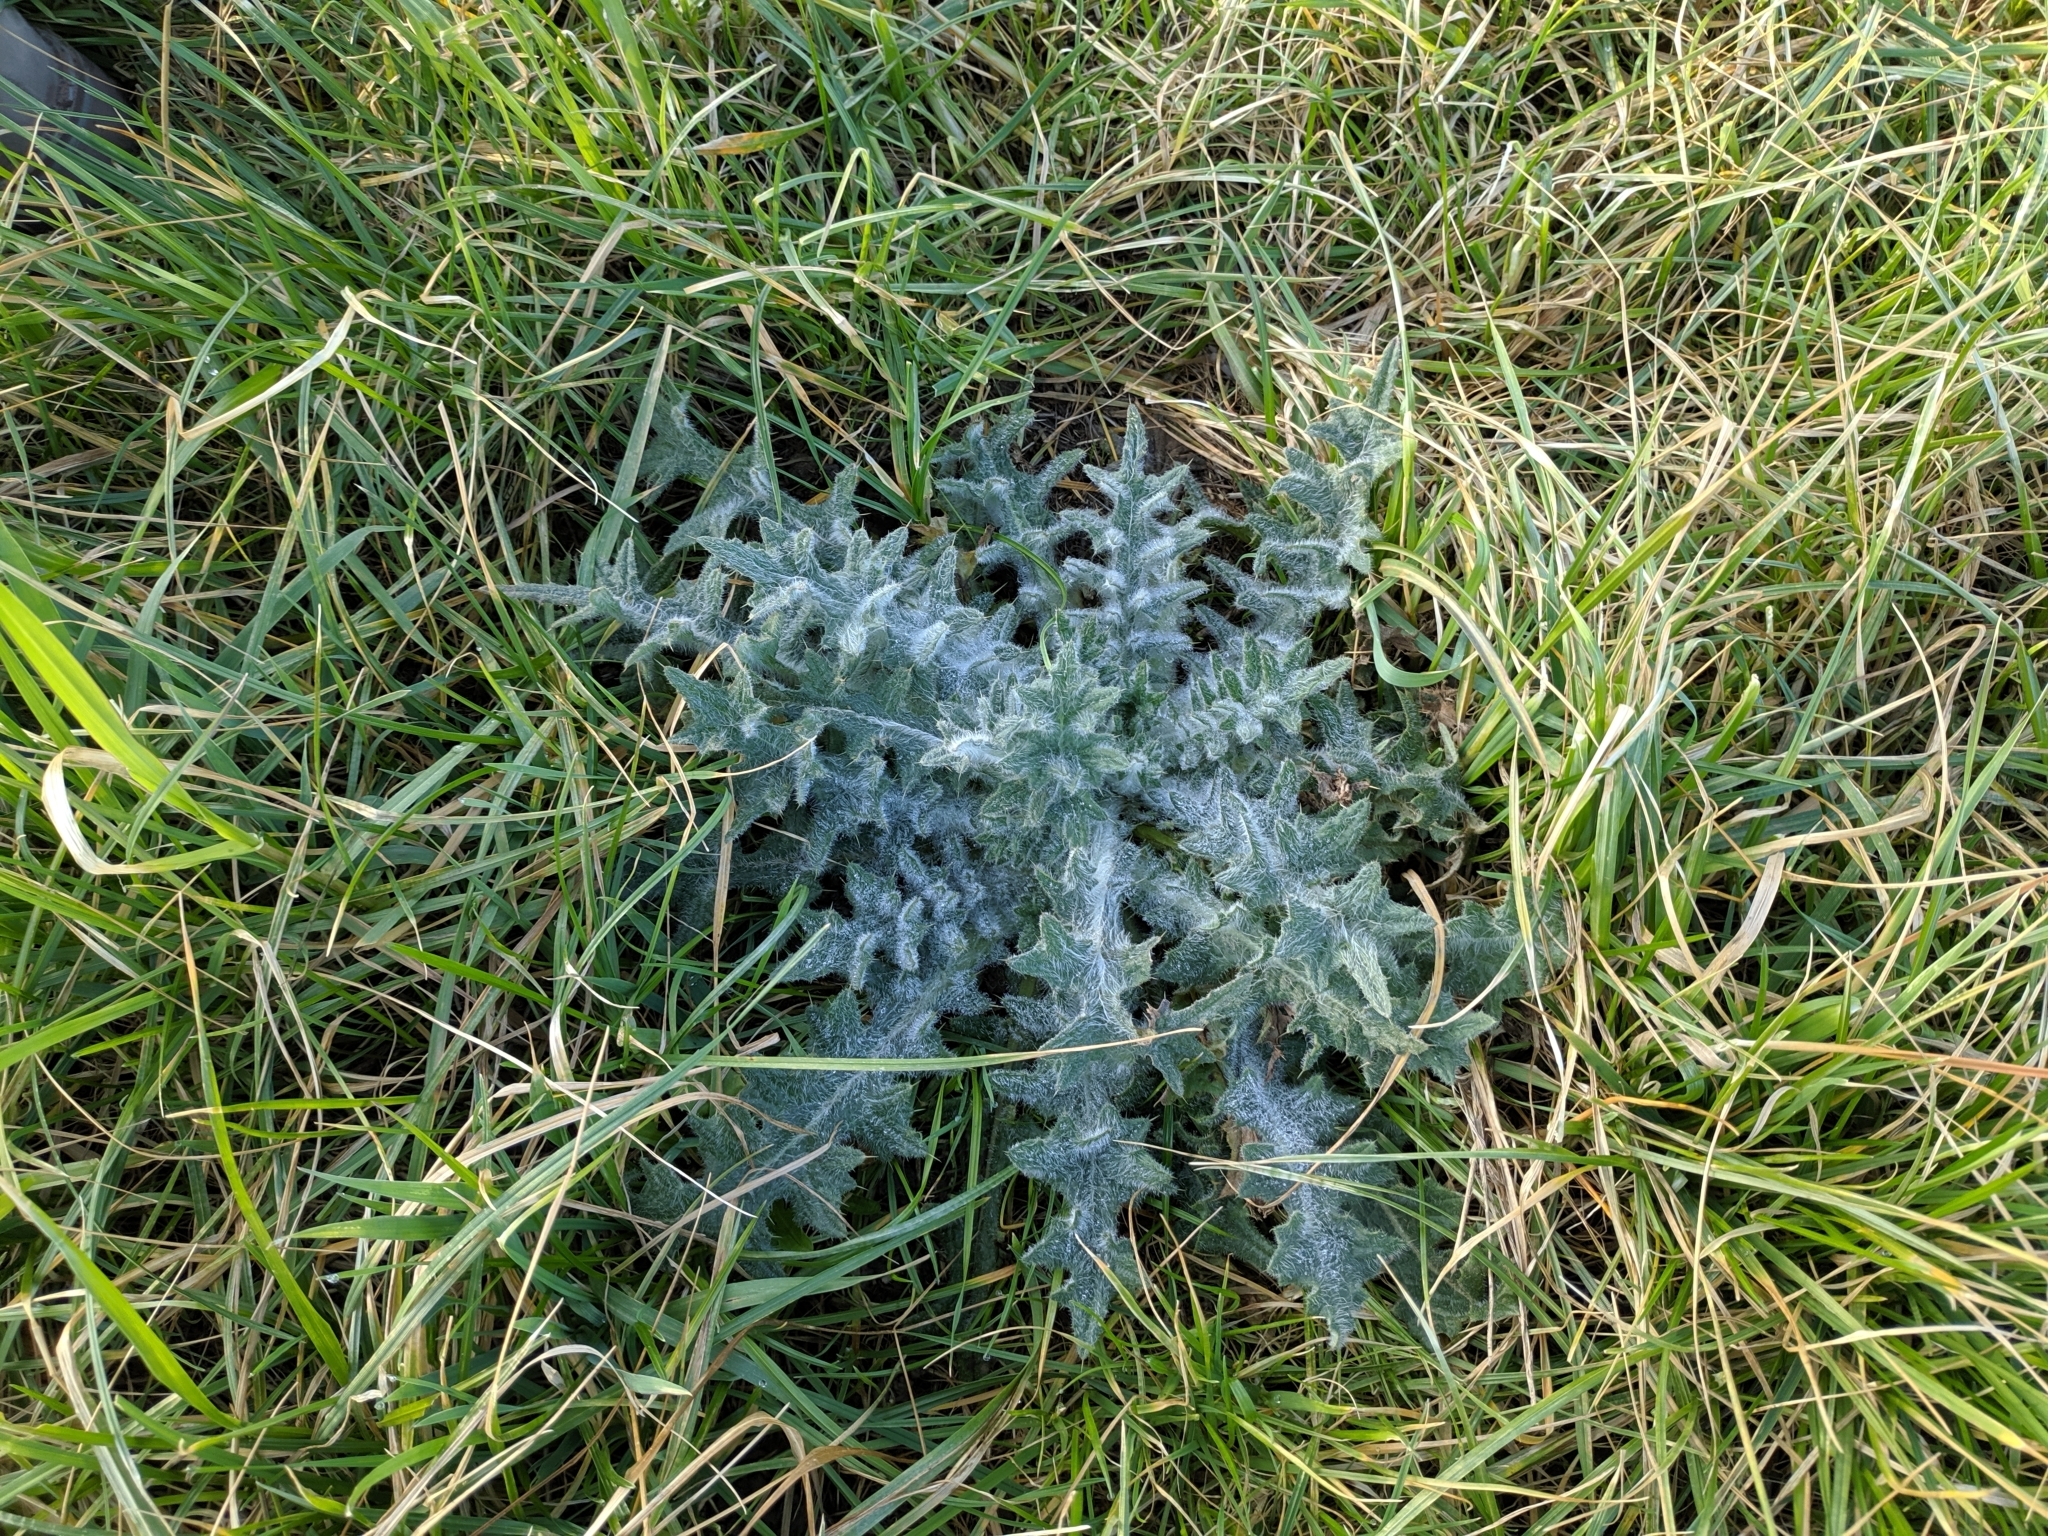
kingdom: Plantae
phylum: Tracheophyta
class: Magnoliopsida
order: Asterales
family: Asteraceae
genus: Cirsium
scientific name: Cirsium vulgare
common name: Bull thistle
